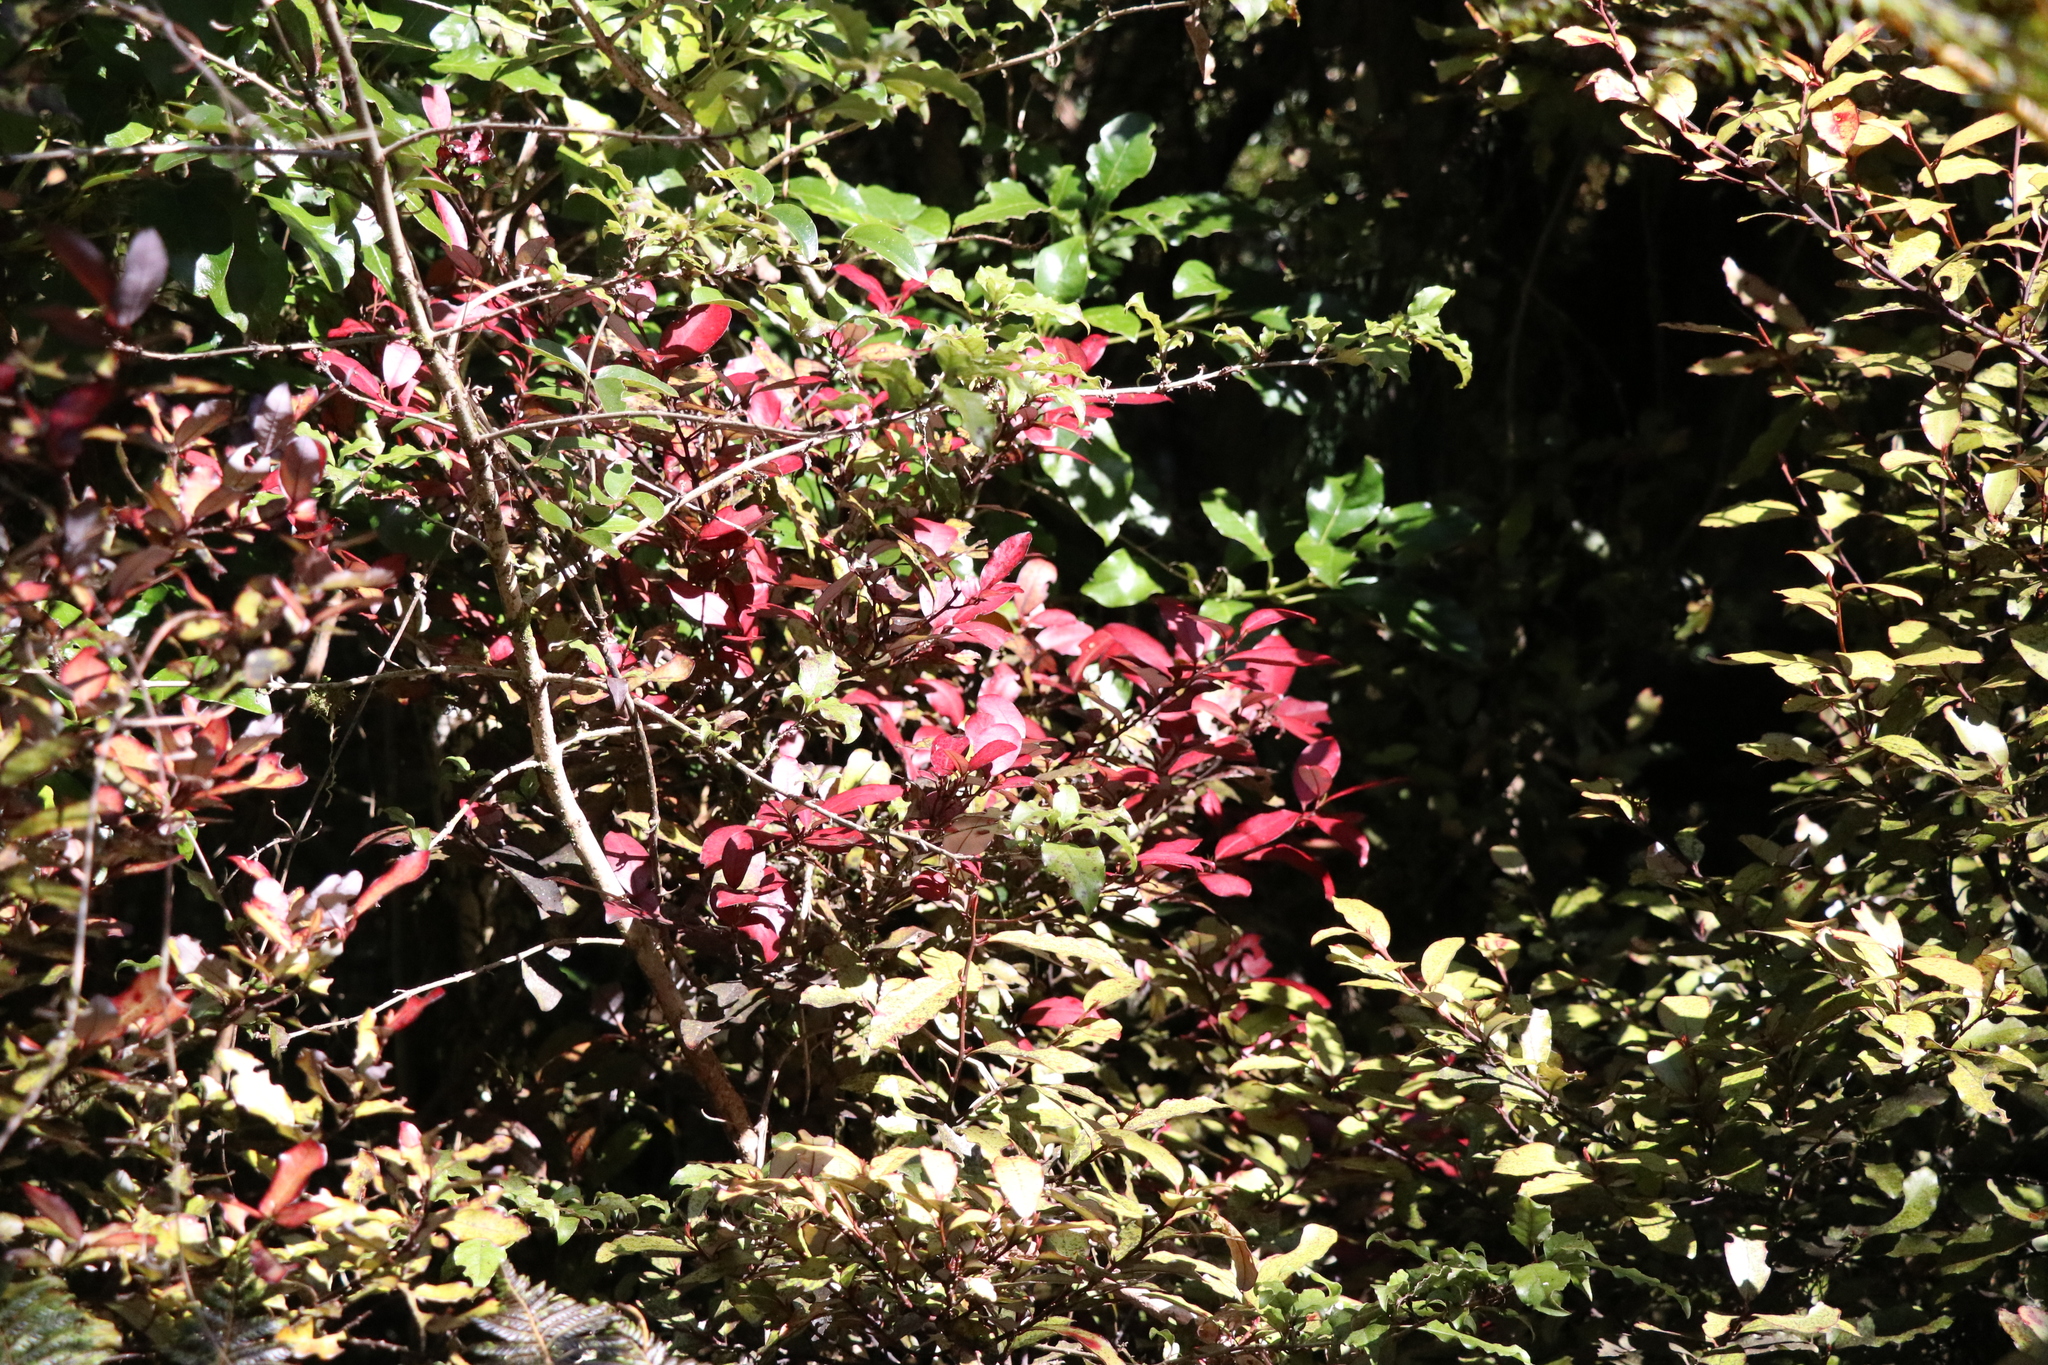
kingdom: Plantae
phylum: Tracheophyta
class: Magnoliopsida
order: Canellales
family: Winteraceae
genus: Pseudowintera
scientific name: Pseudowintera colorata
